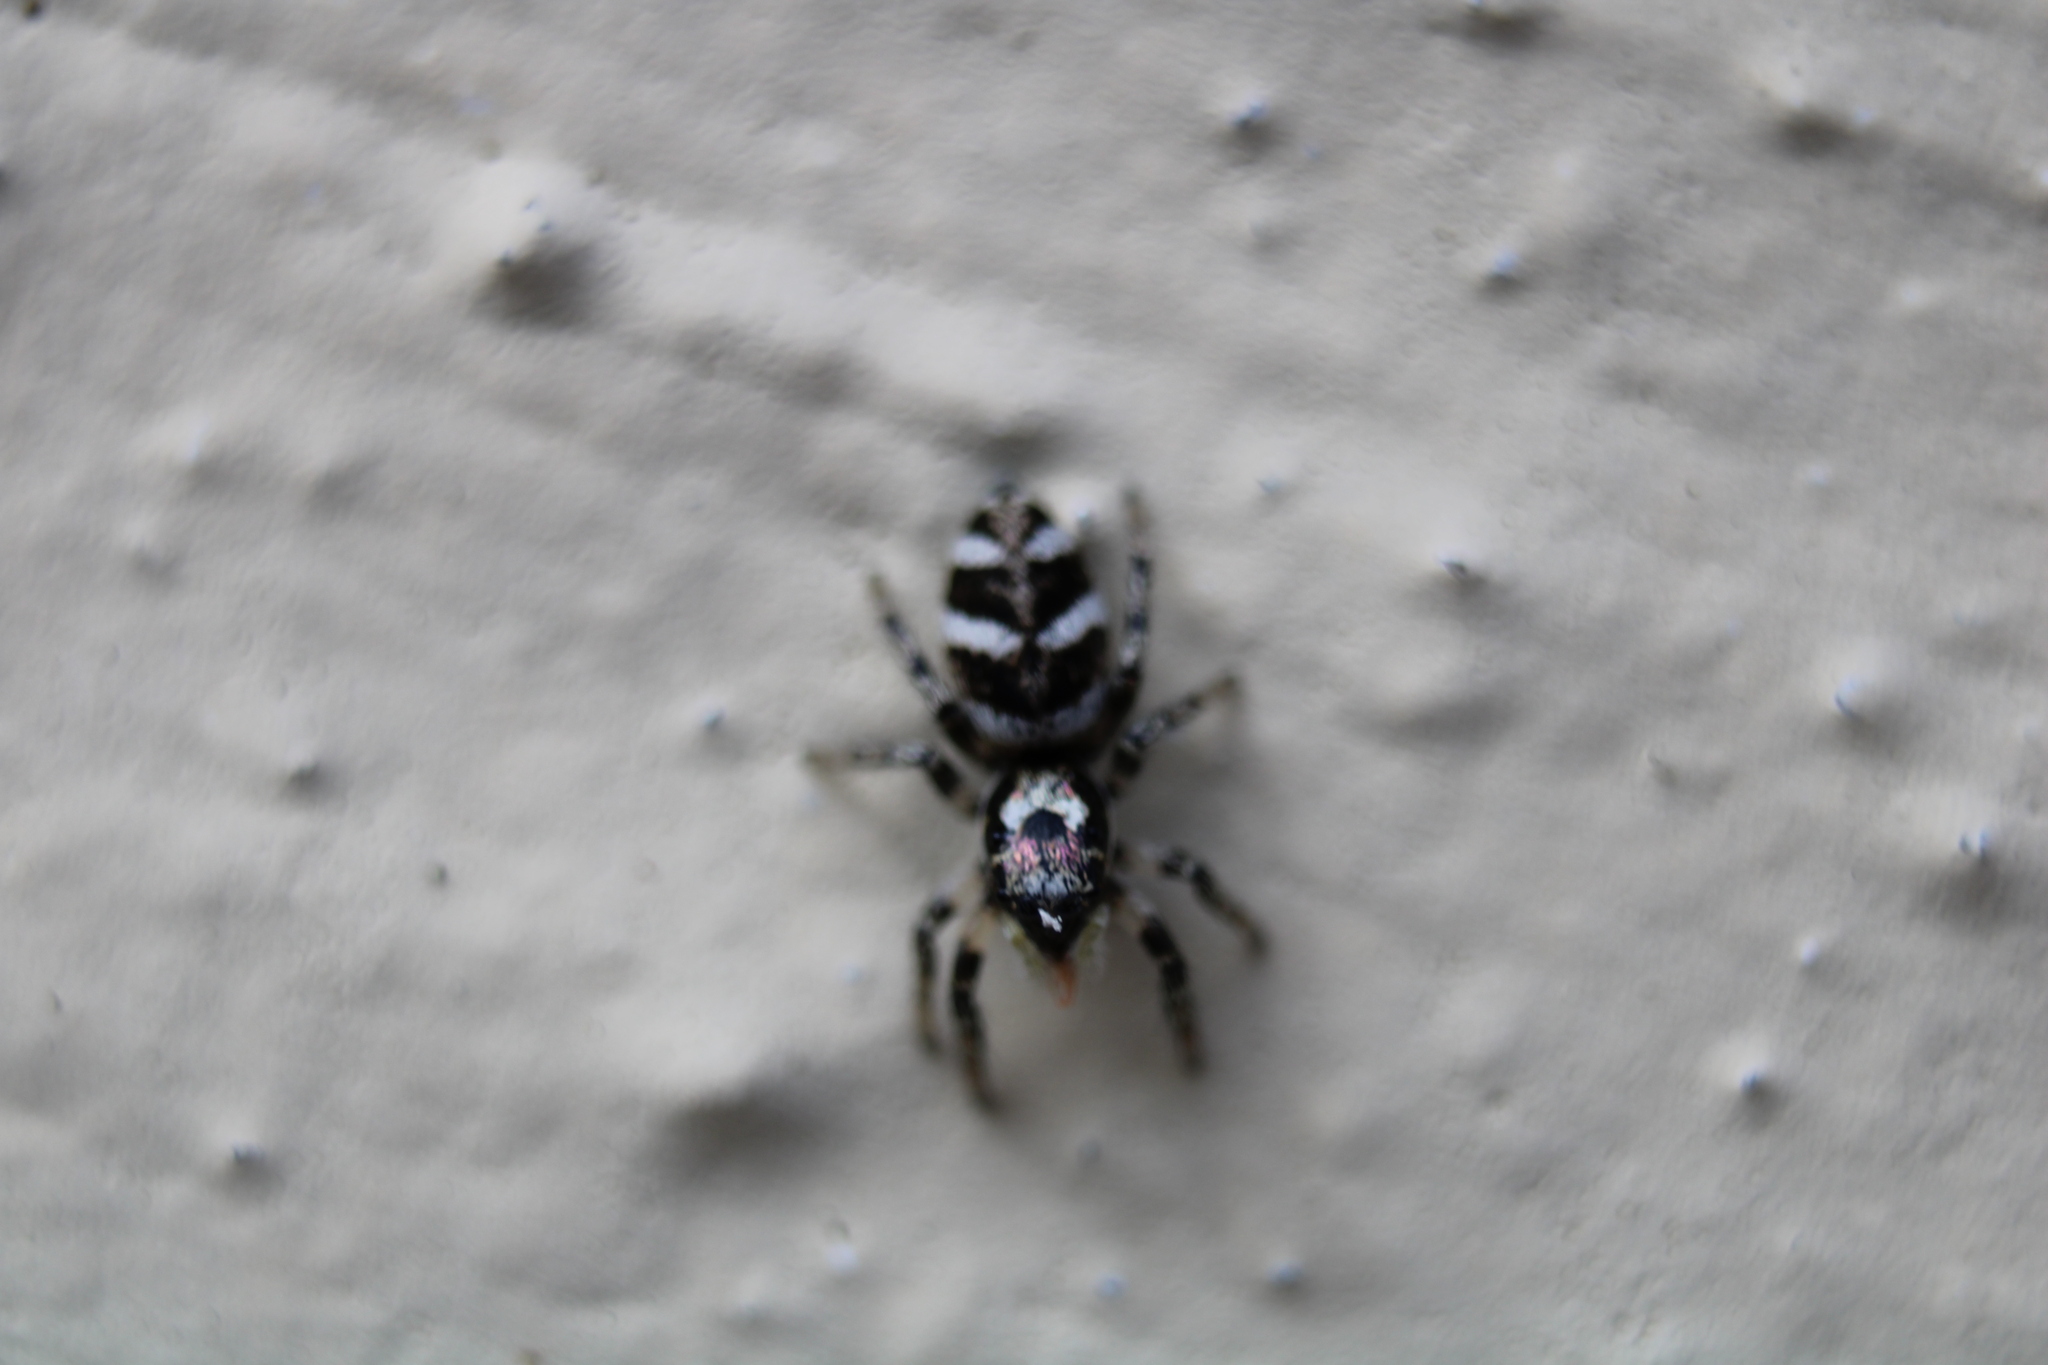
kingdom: Animalia
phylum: Arthropoda
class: Arachnida
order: Araneae
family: Salticidae
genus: Salticus
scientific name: Salticus scenicus
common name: Zebra jumper
